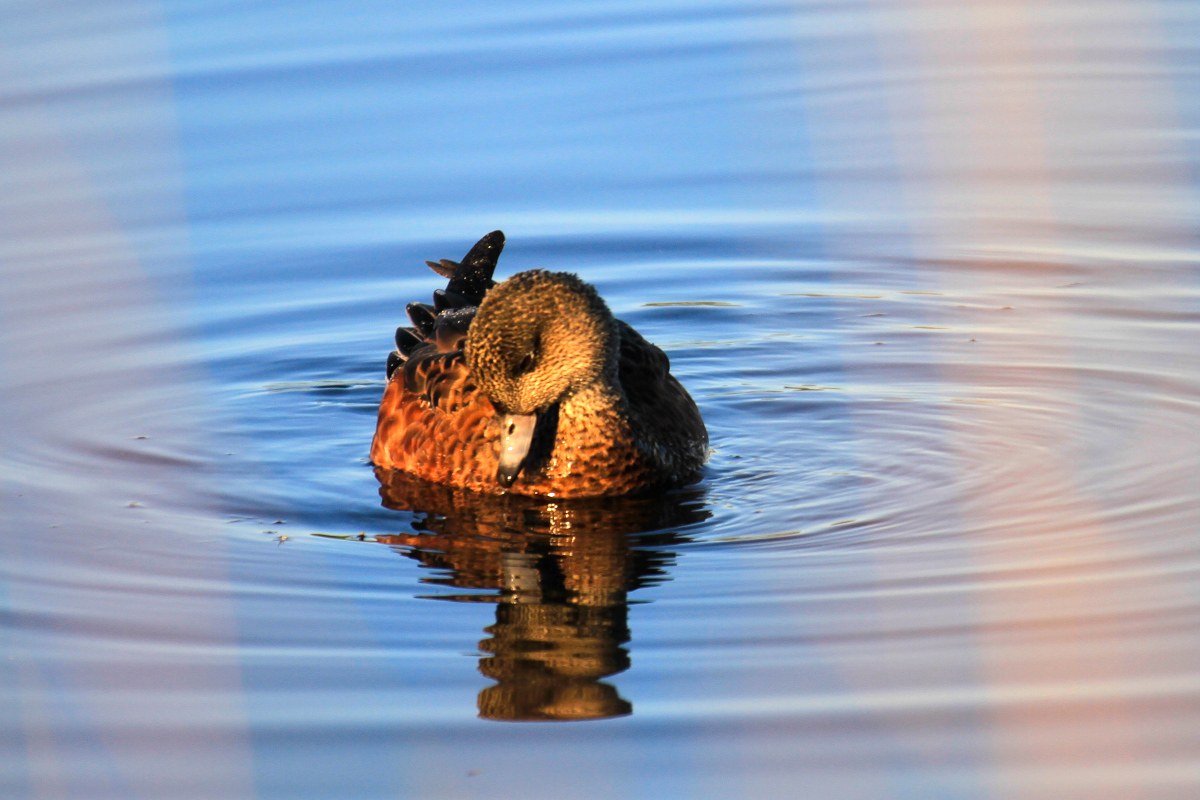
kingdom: Animalia
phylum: Chordata
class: Aves
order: Anseriformes
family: Anatidae
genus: Mareca
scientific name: Mareca americana
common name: American wigeon
